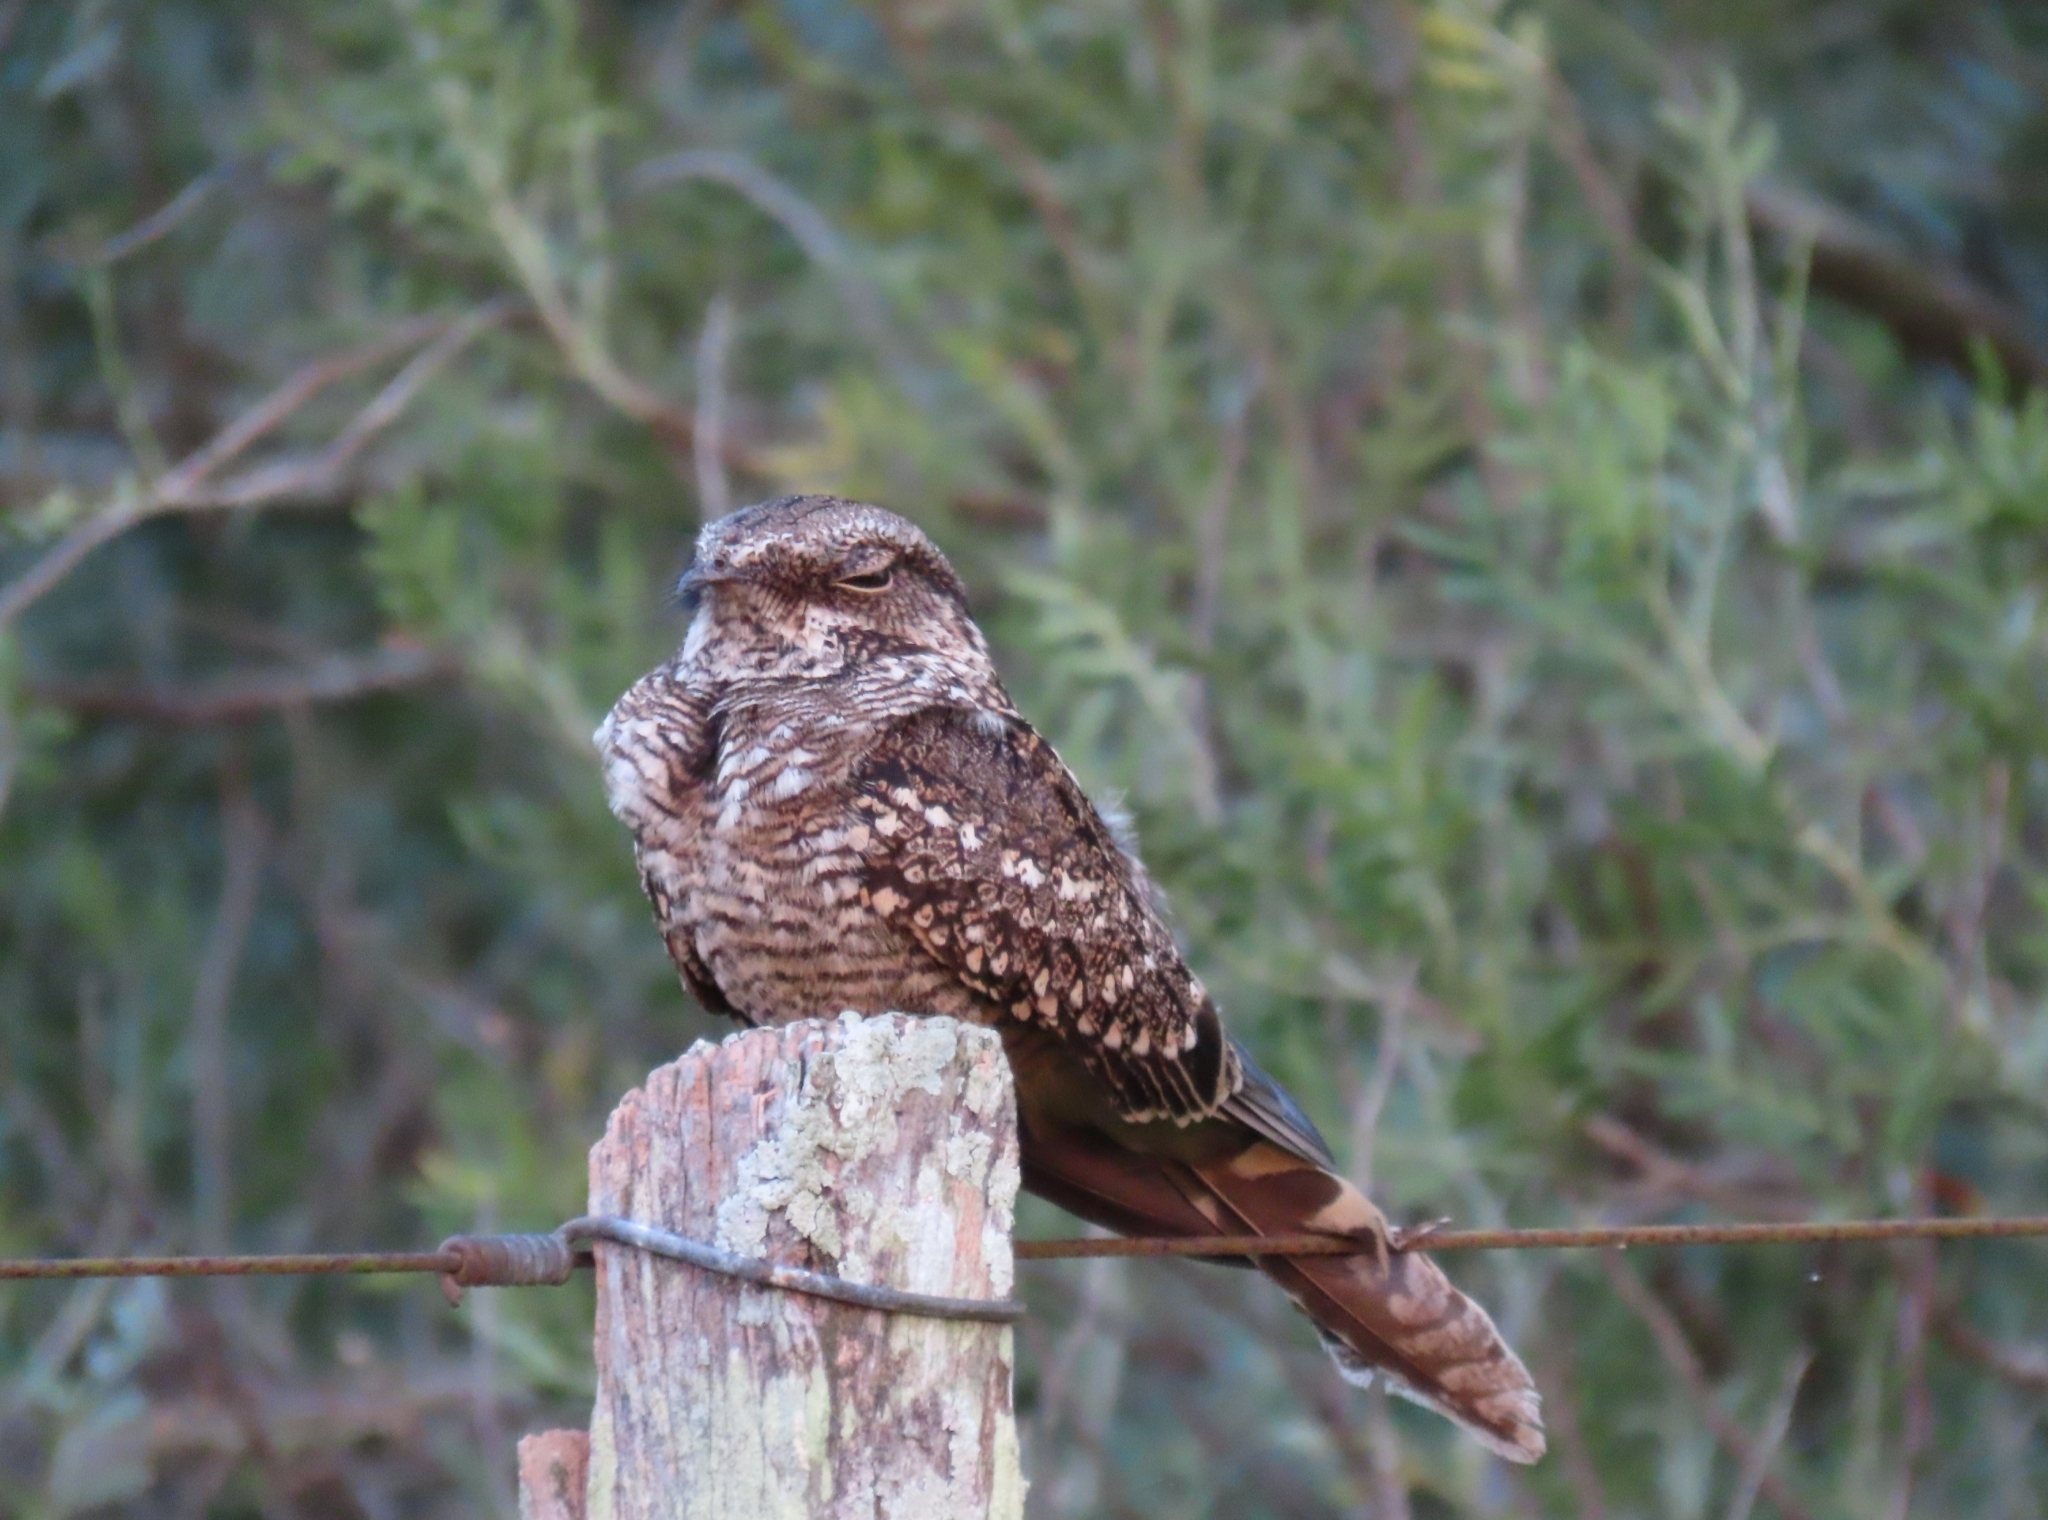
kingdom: Animalia
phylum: Chordata
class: Aves
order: Caprimulgiformes
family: Caprimulgidae
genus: Hydropsalis
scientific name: Hydropsalis torquata
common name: Scissor-tailed nightjar
